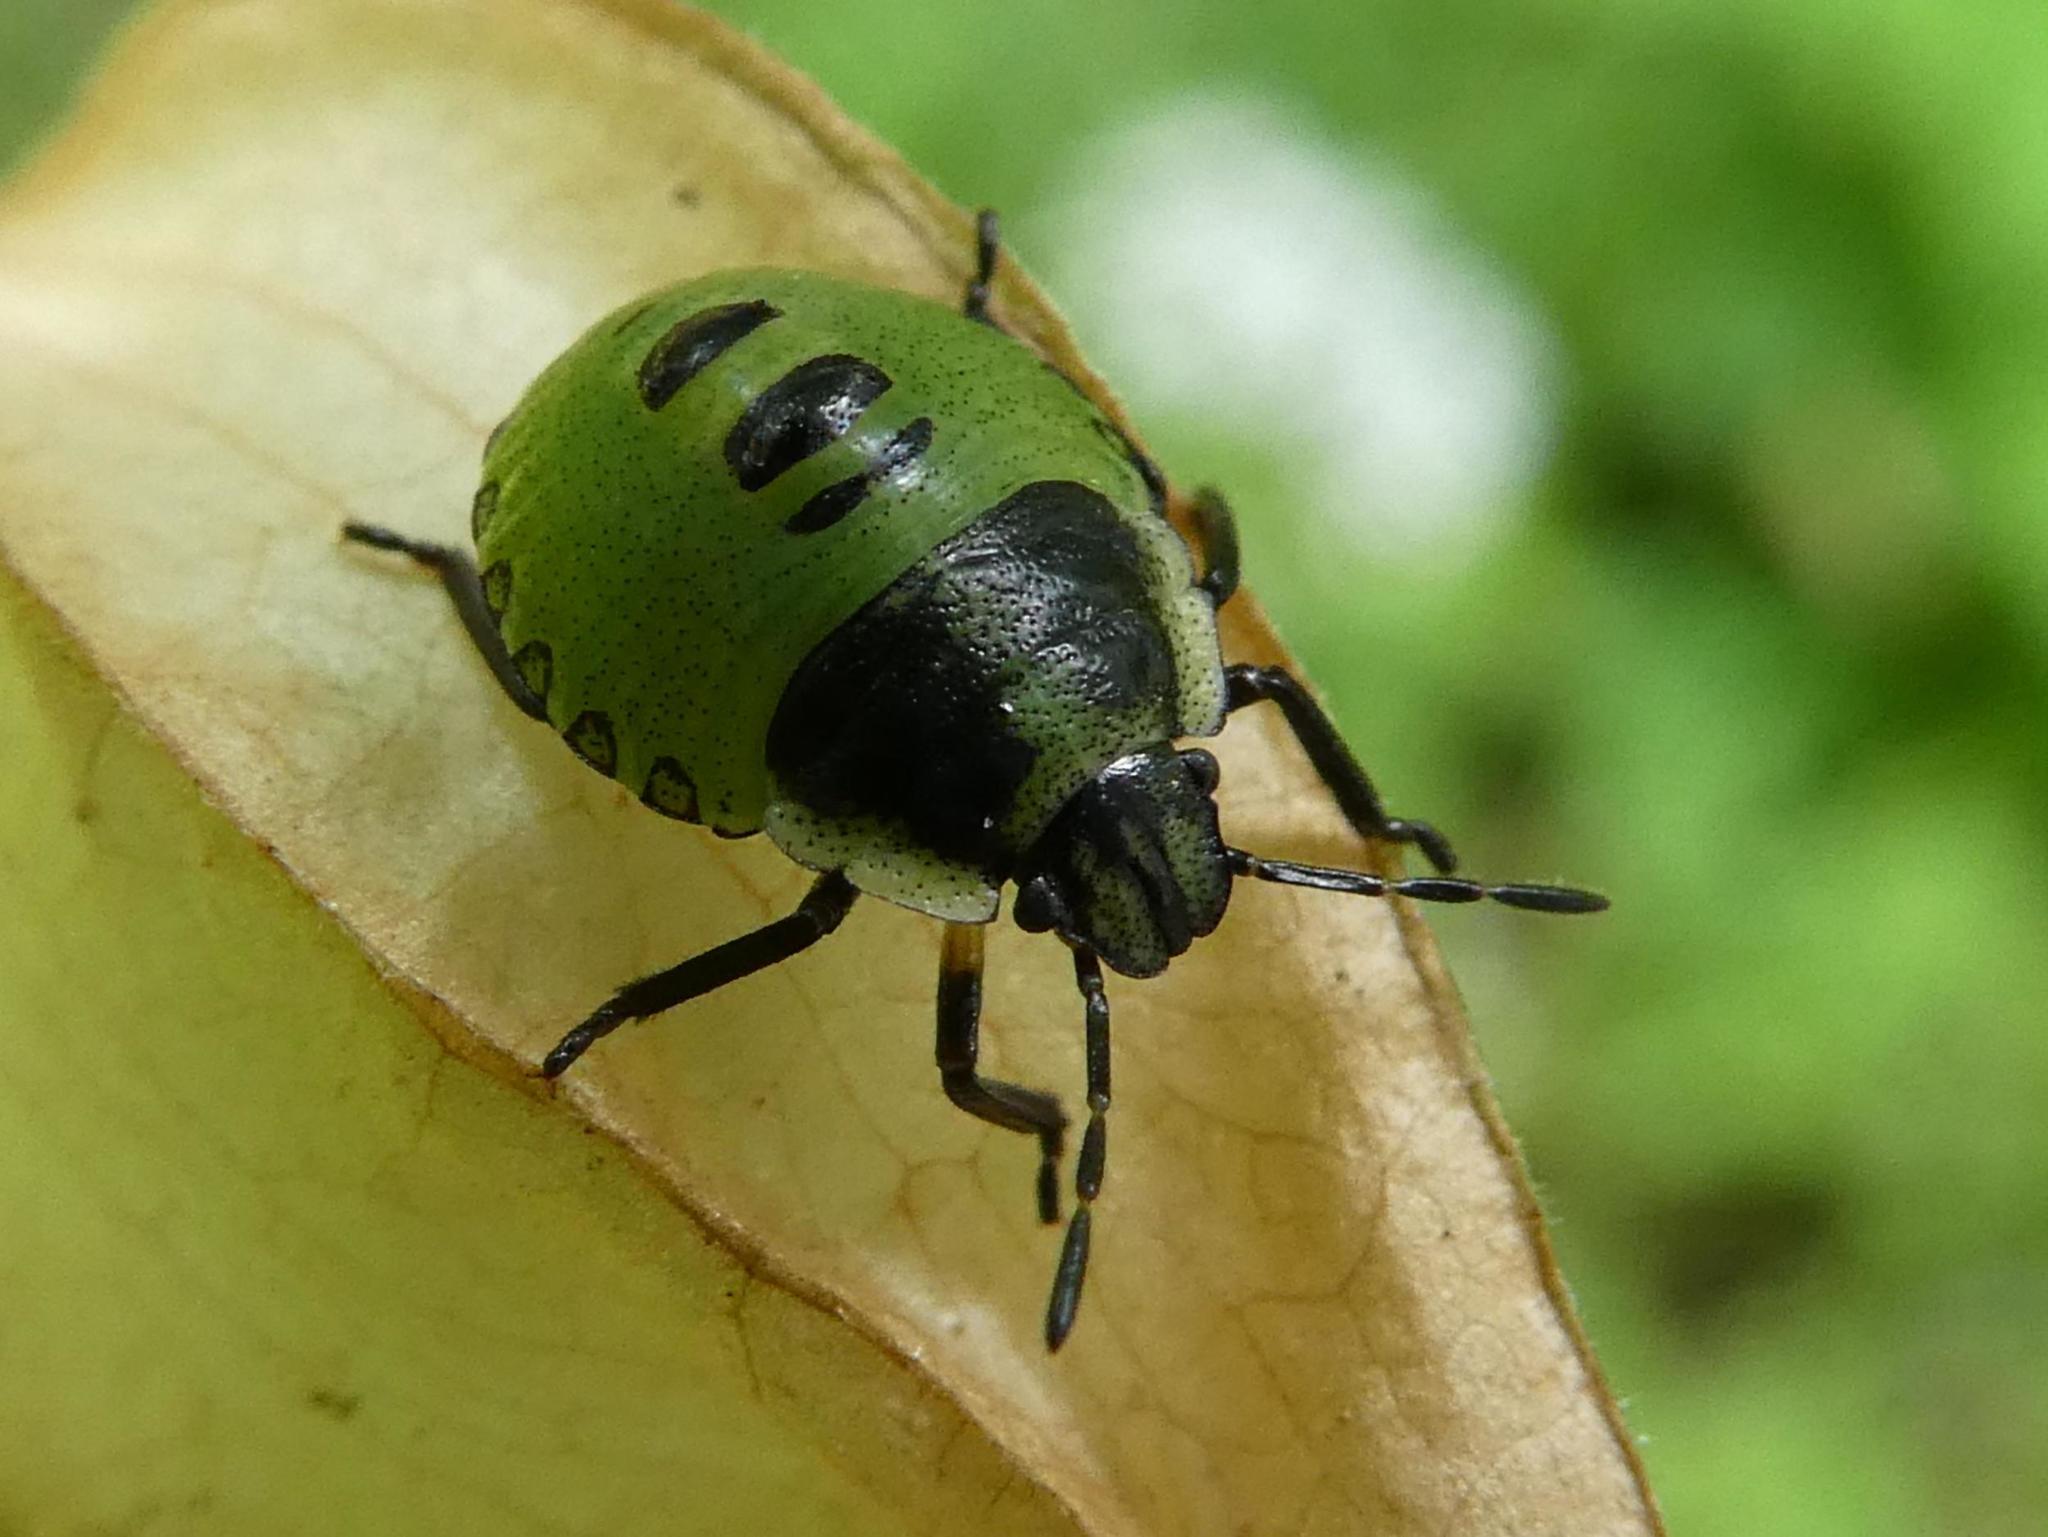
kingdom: Animalia
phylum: Arthropoda
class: Insecta
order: Hemiptera
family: Pentatomidae
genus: Palomena
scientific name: Palomena prasina
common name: Green shieldbug
